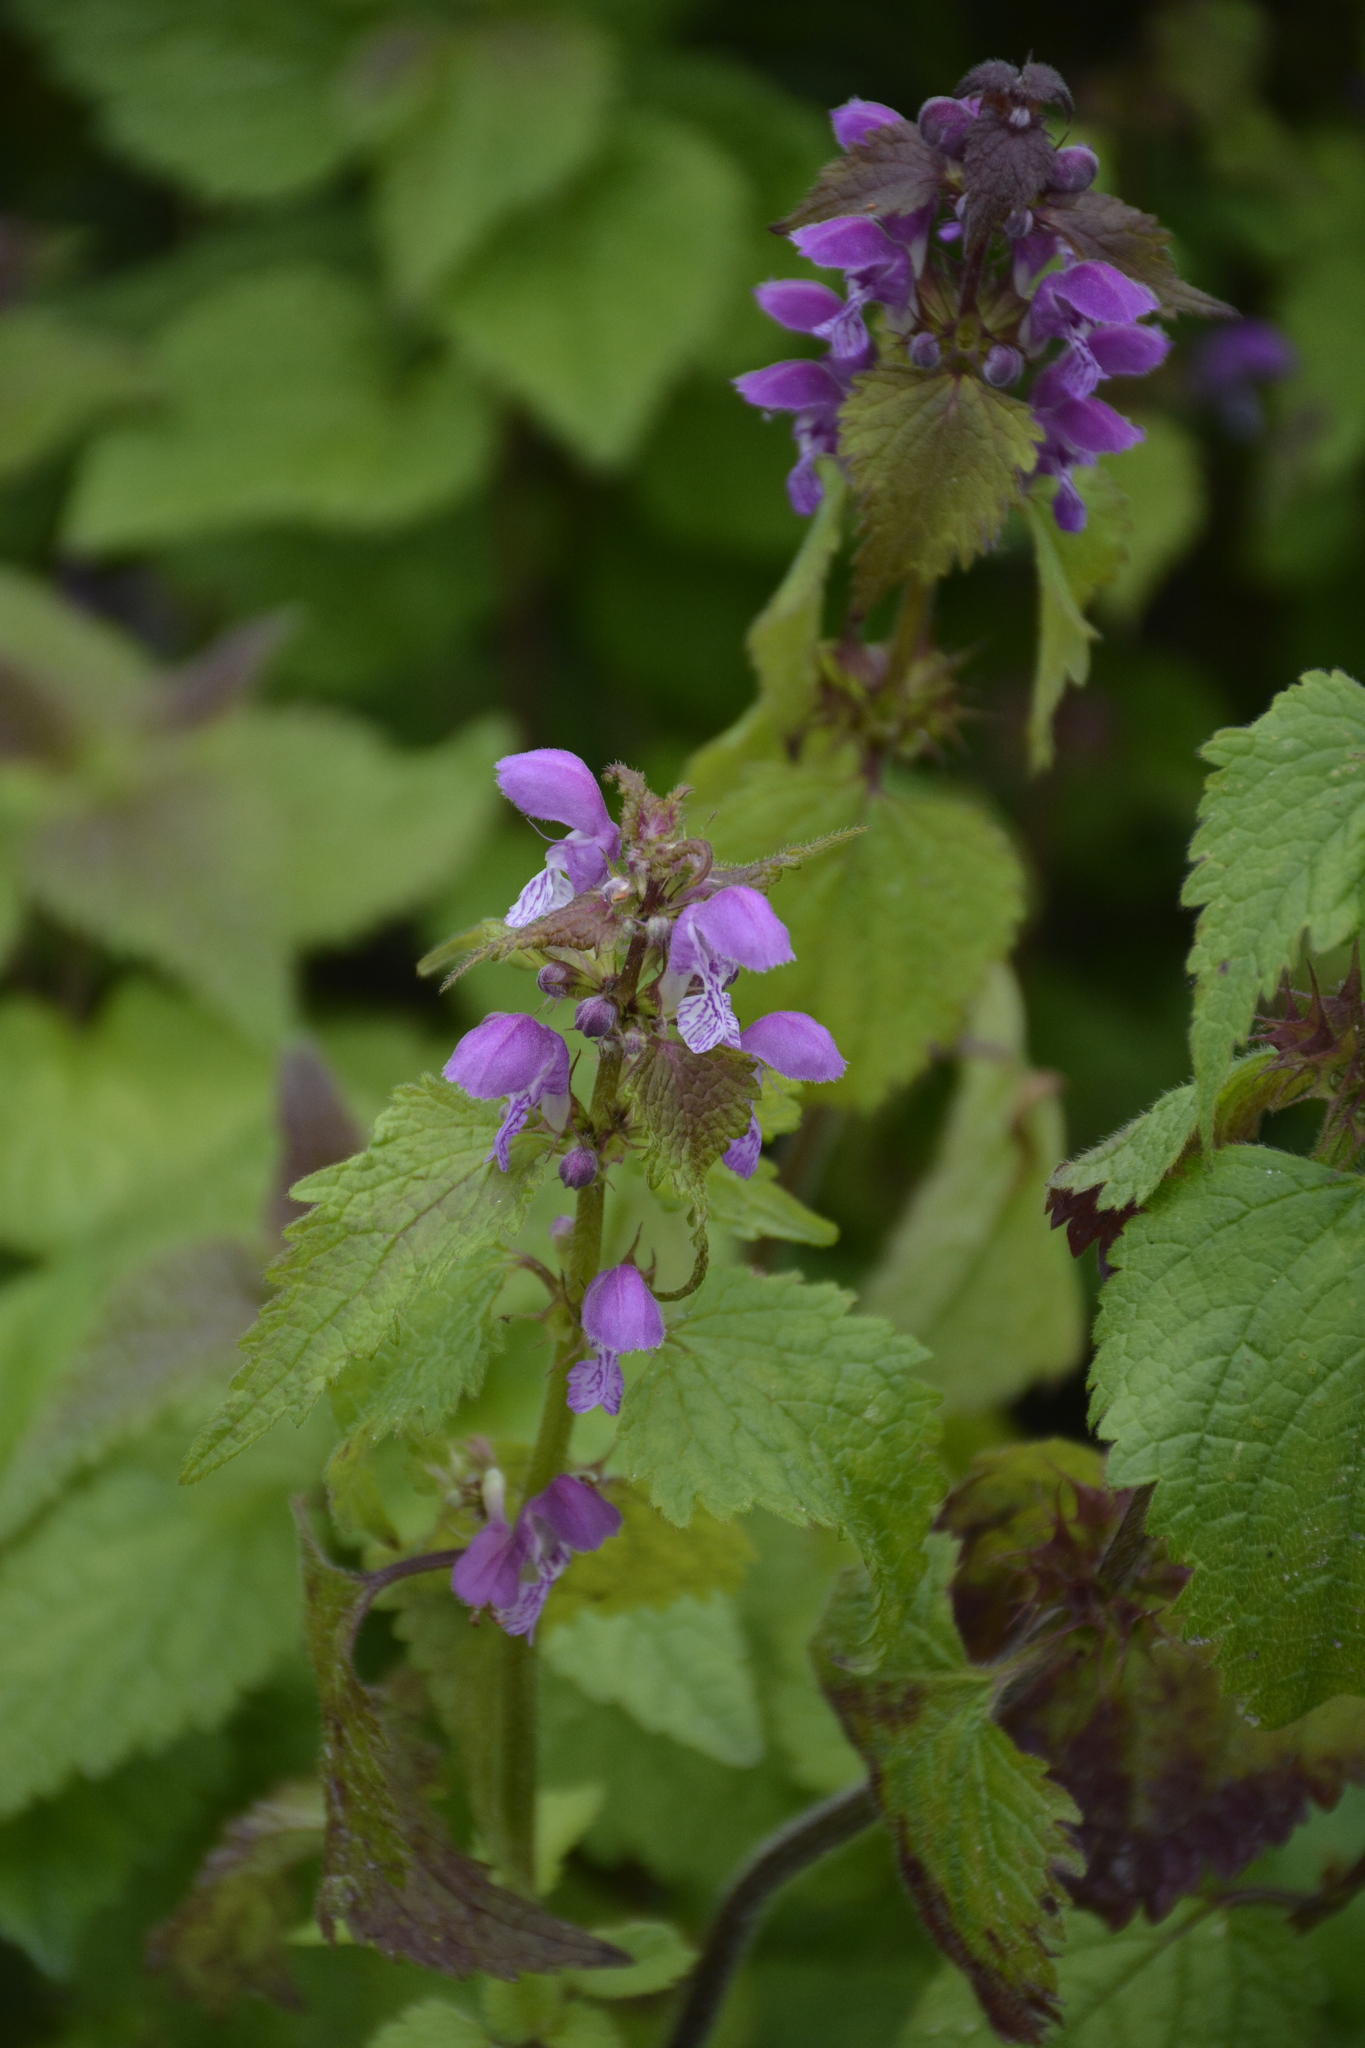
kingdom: Plantae
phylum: Tracheophyta
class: Magnoliopsida
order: Lamiales
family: Lamiaceae
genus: Lamium
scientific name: Lamium maculatum
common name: Spotted dead-nettle
